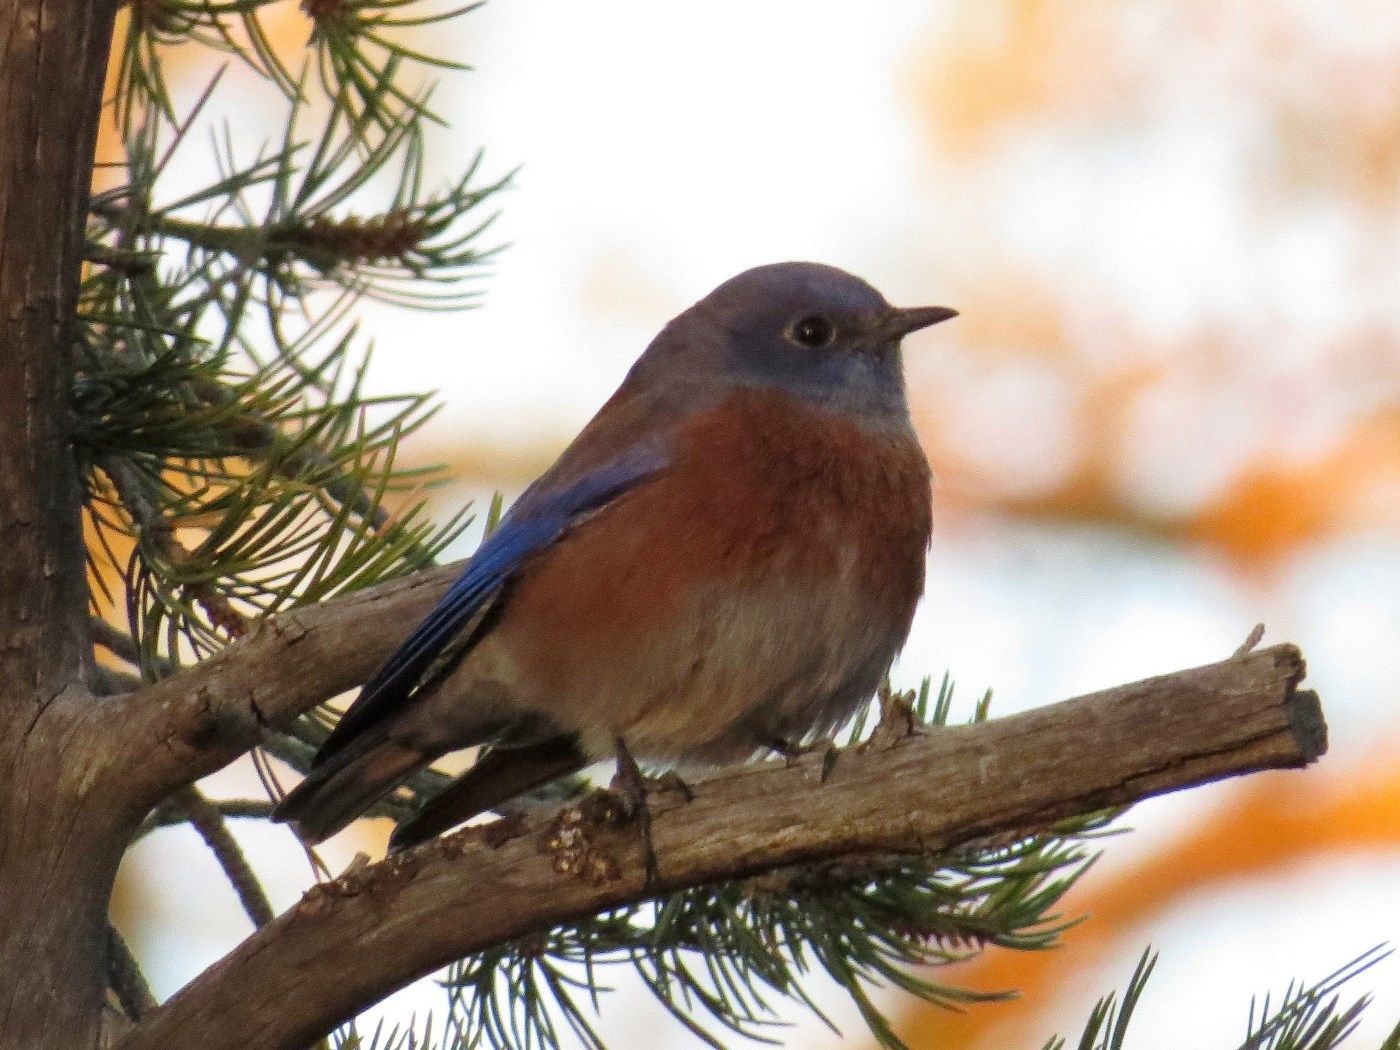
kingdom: Animalia
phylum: Chordata
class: Aves
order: Passeriformes
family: Turdidae
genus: Sialia
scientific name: Sialia mexicana
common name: Western bluebird
